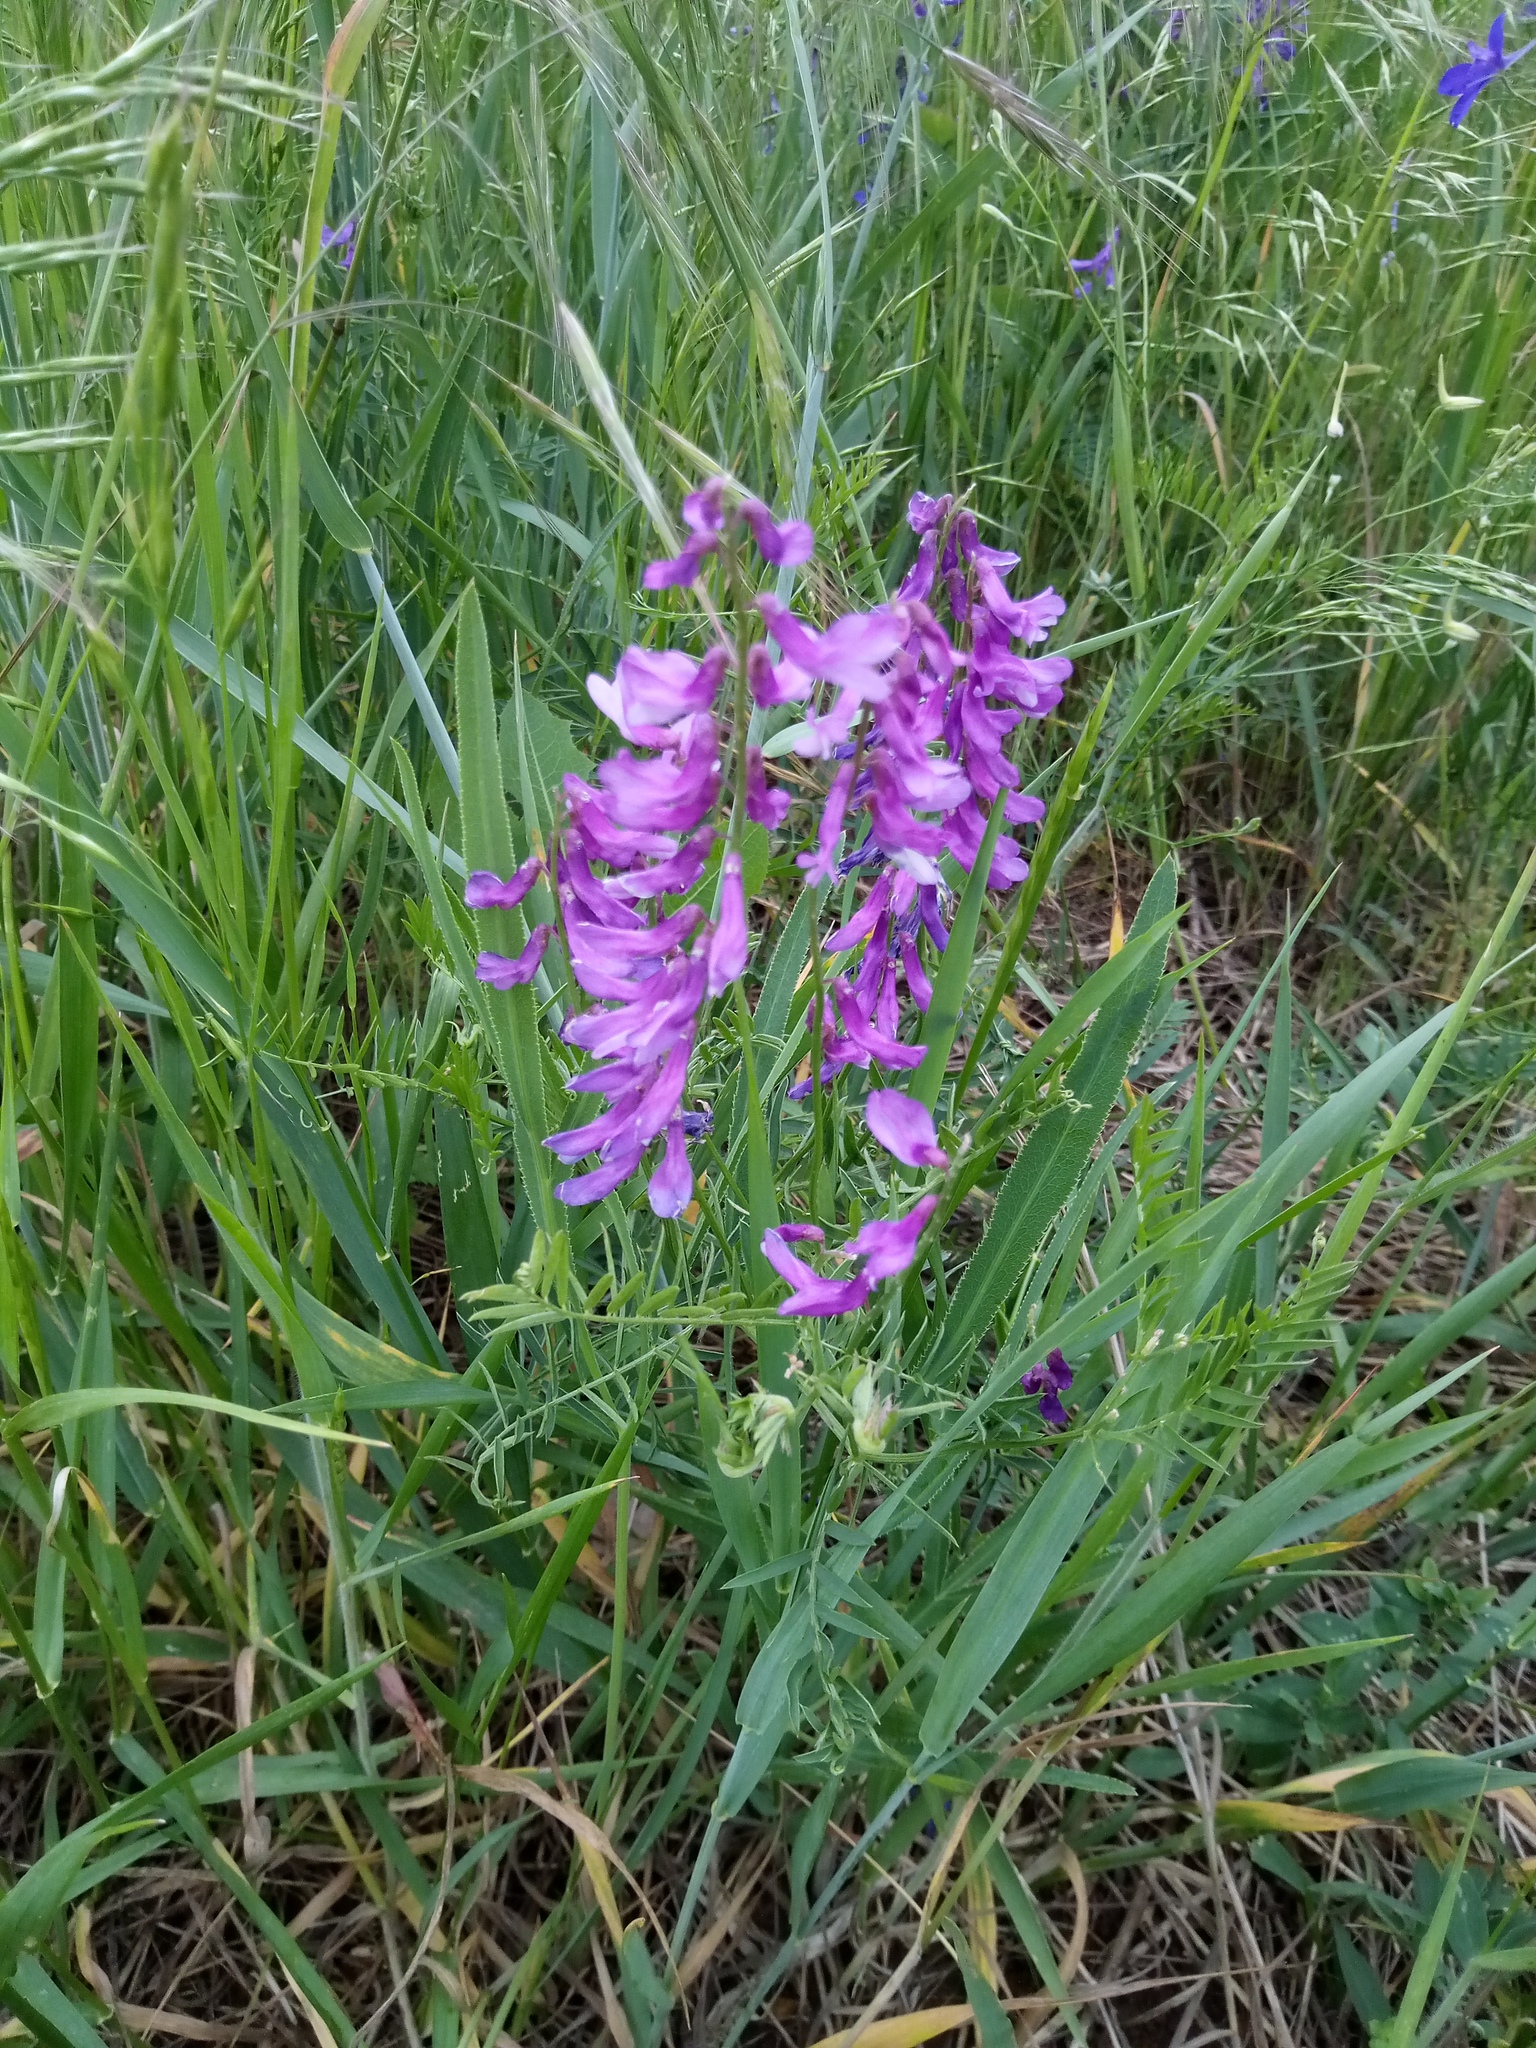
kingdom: Plantae
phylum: Tracheophyta
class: Magnoliopsida
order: Fabales
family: Fabaceae
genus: Vicia
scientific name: Vicia tenuifolia
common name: Fine-leaved vetch
